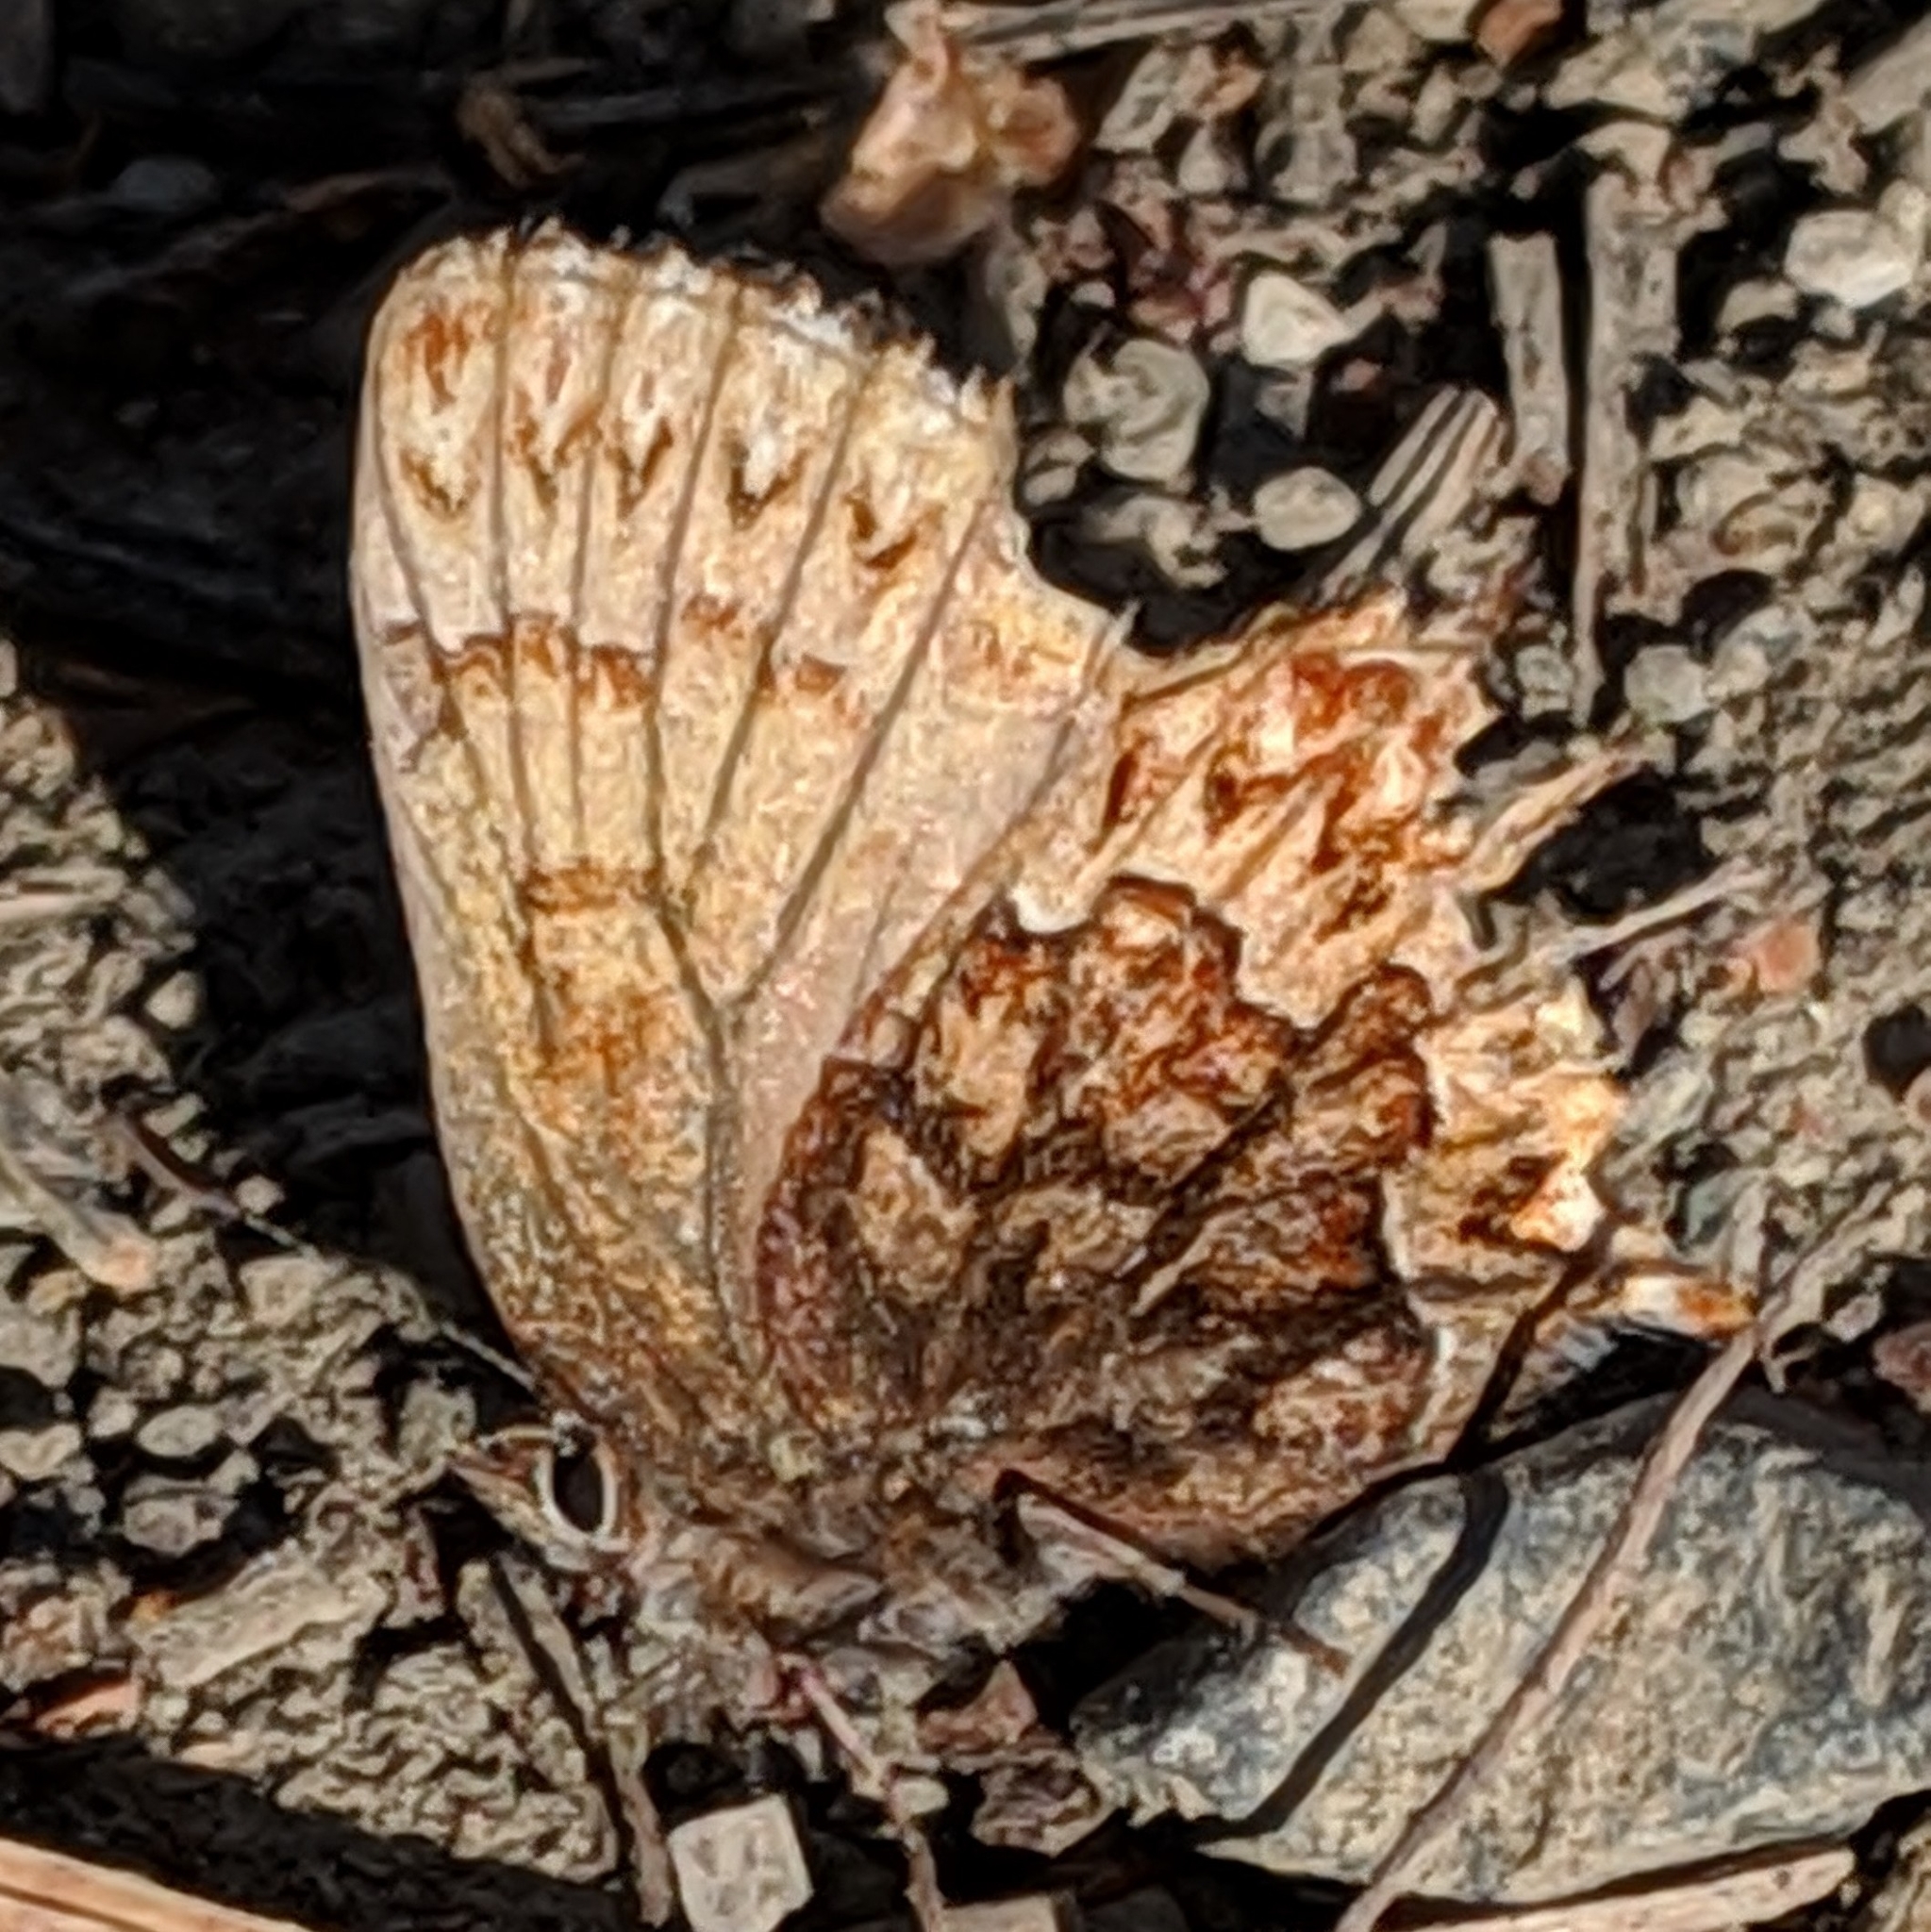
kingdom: Animalia
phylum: Arthropoda
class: Insecta
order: Lepidoptera
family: Lycaenidae
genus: Incisalia
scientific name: Incisalia eryphon
